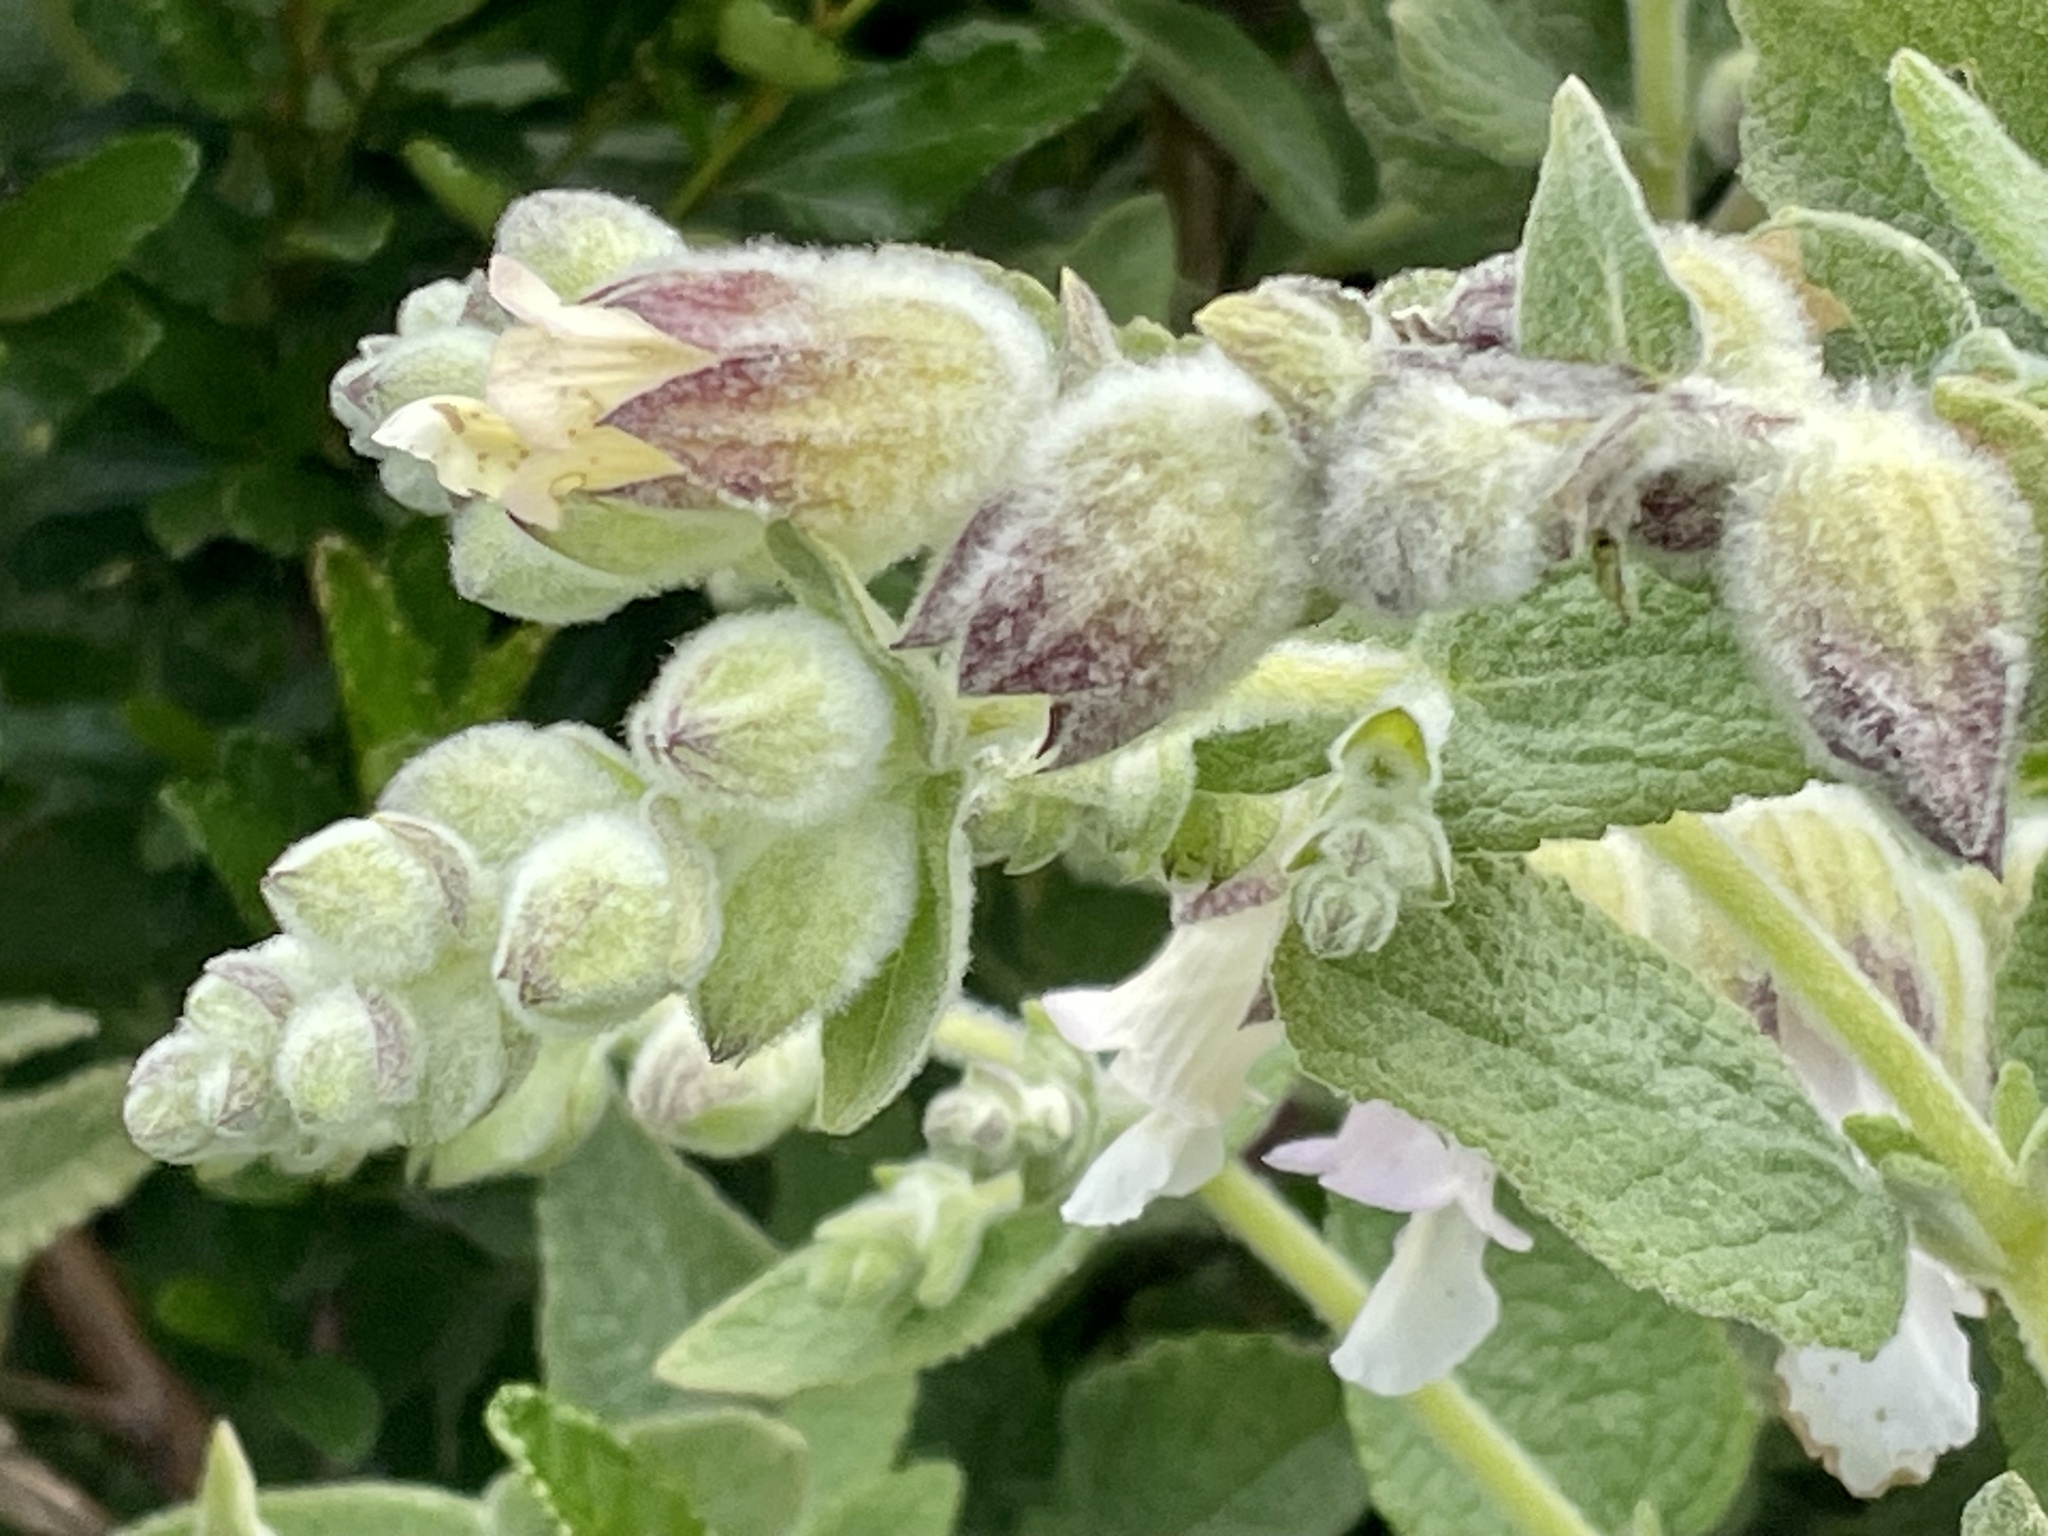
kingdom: Plantae
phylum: Tracheophyta
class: Magnoliopsida
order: Lamiales
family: Lamiaceae
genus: Lepechinia
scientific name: Lepechinia calycina
